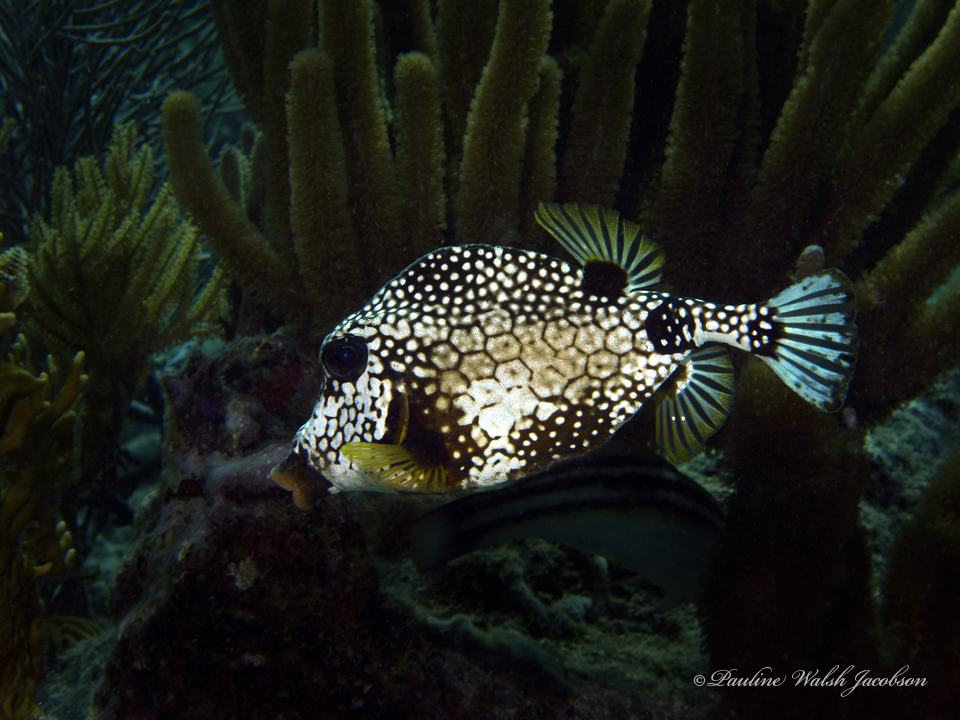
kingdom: Animalia
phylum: Chordata
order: Tetraodontiformes
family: Ostraciidae
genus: Lactophrys
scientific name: Lactophrys triqueter
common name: Smooth trunkfish
